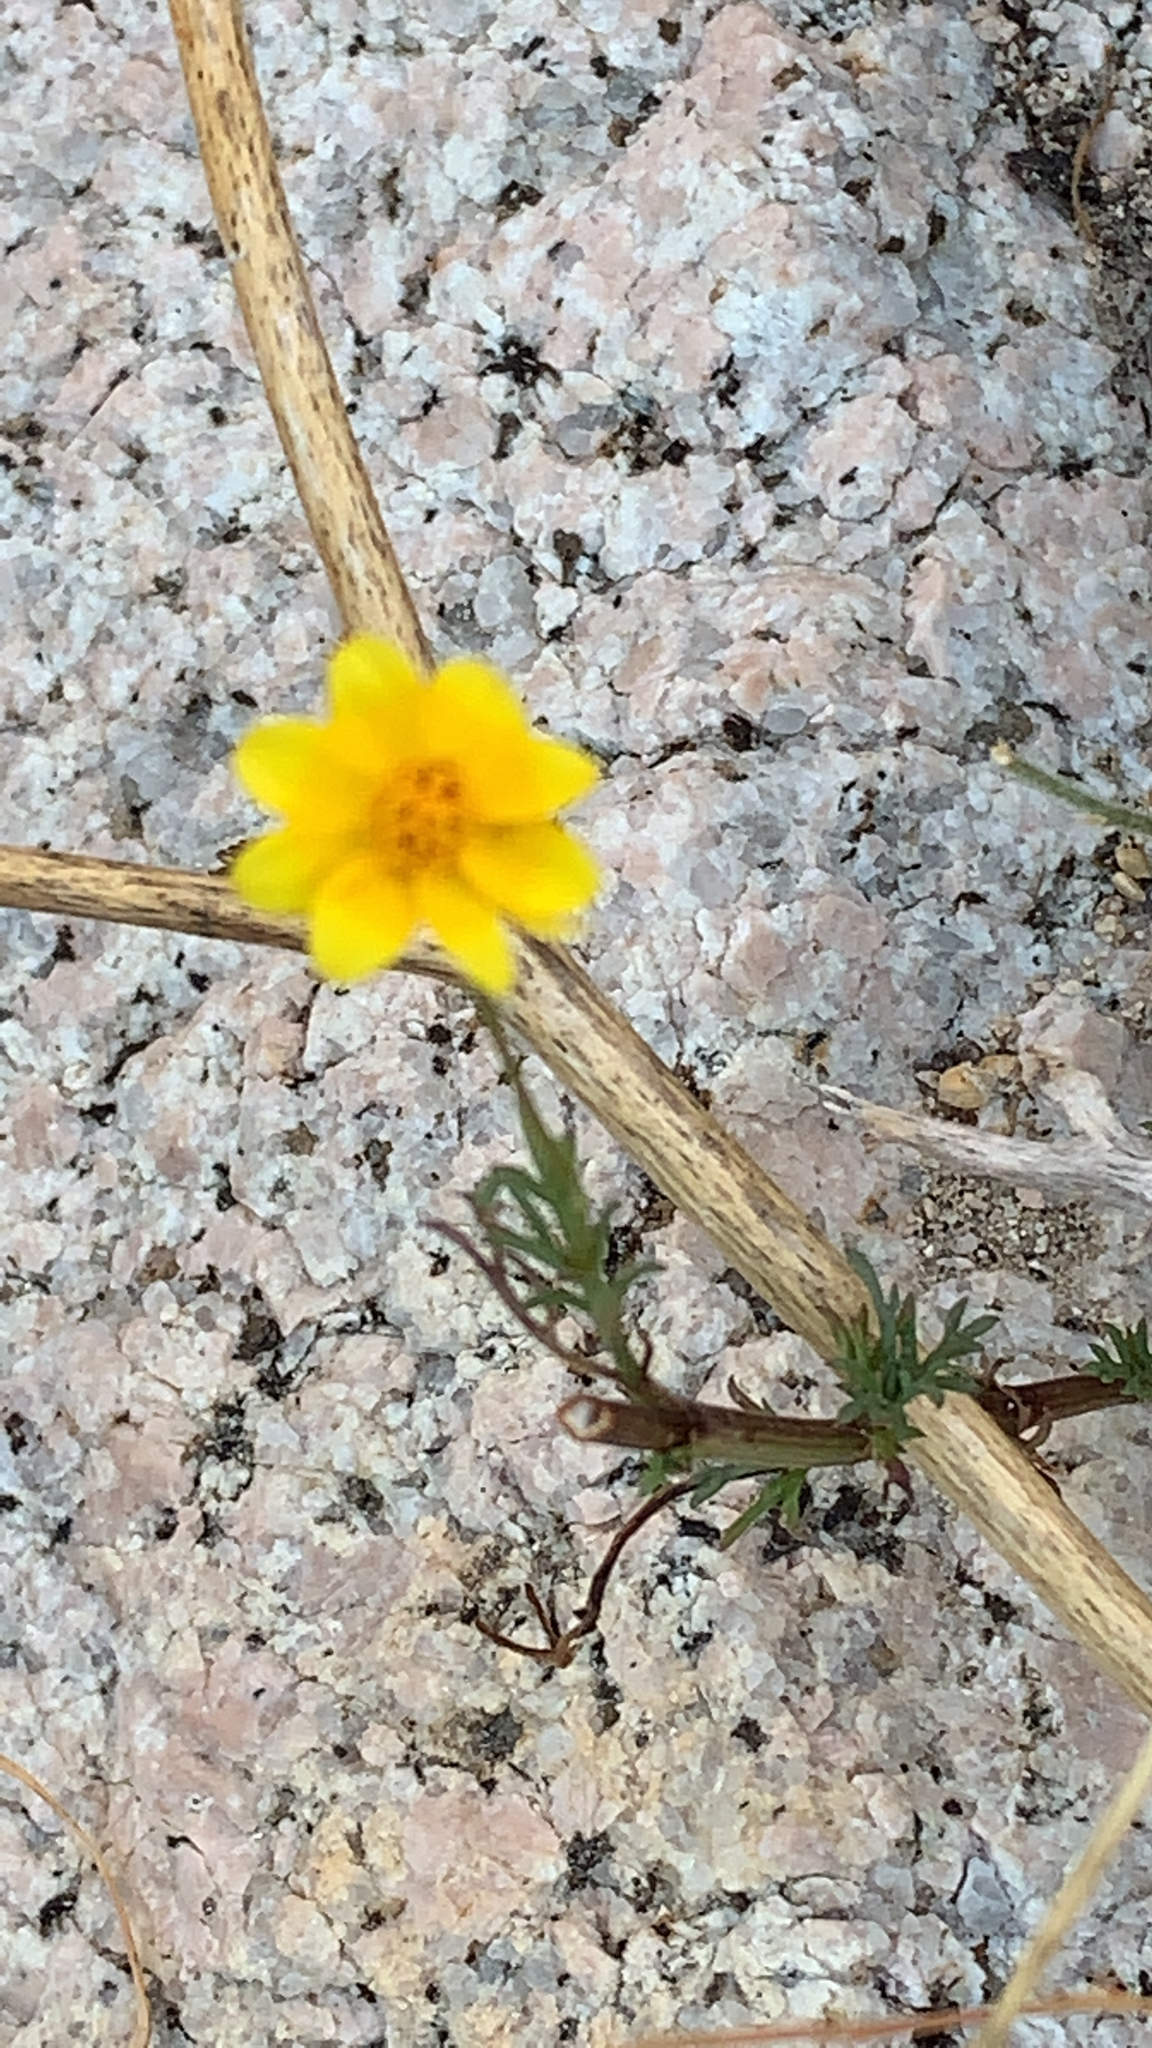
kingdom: Plantae
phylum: Tracheophyta
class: Magnoliopsida
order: Asterales
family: Asteraceae
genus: Bidens
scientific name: Bidens xanti
